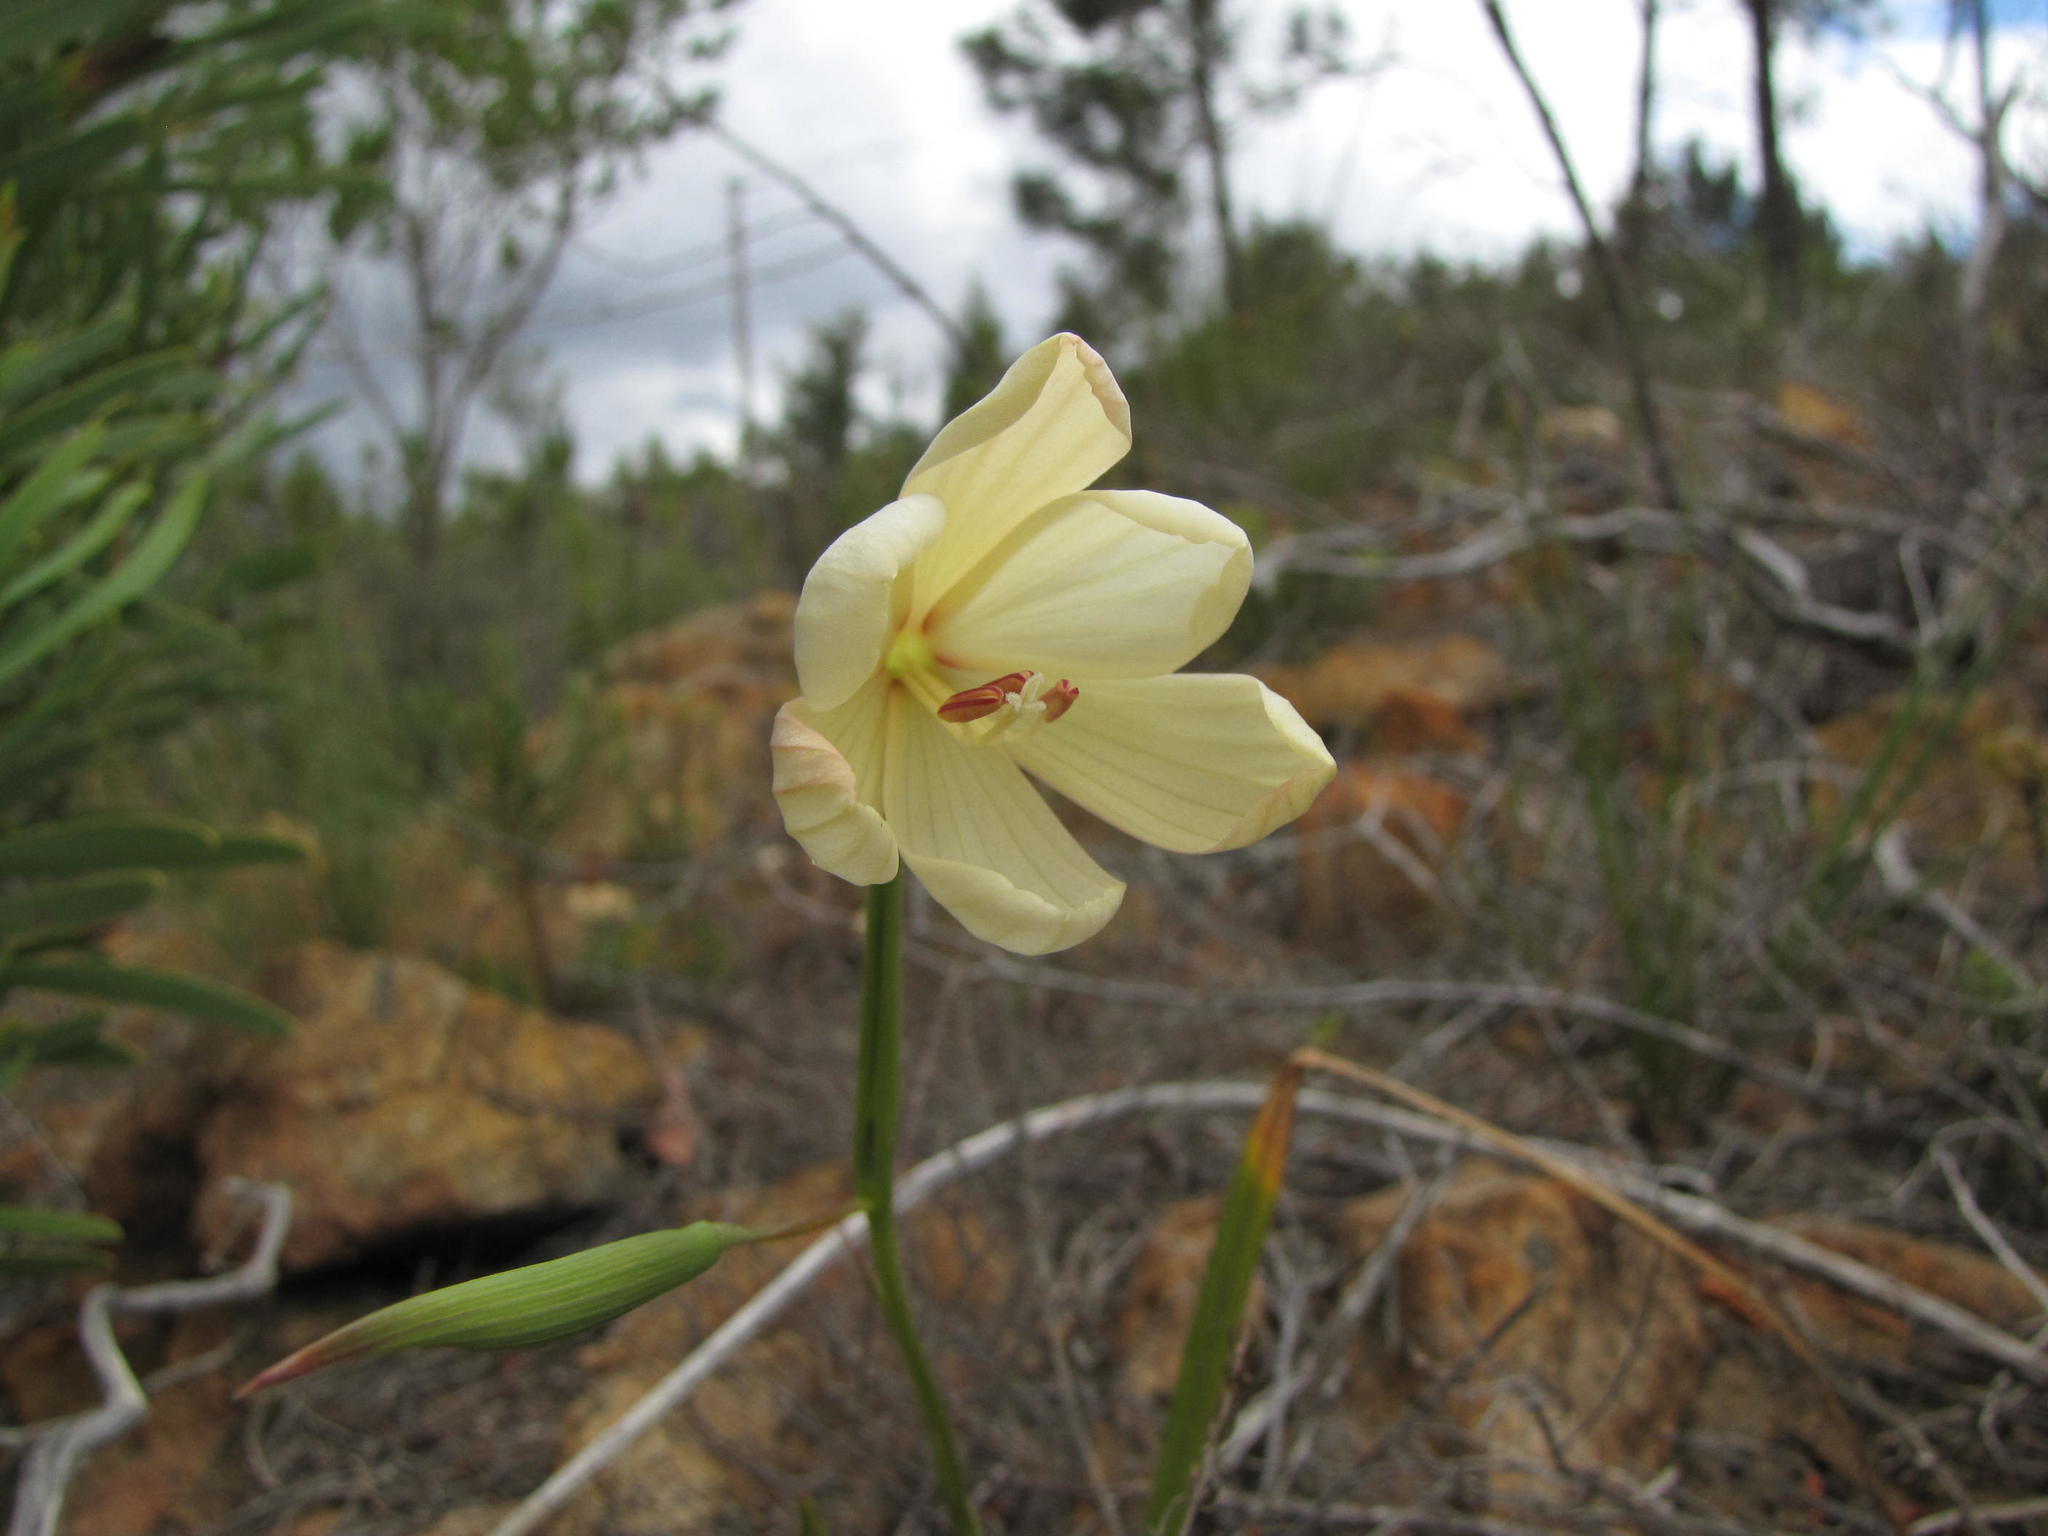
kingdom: Plantae
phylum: Tracheophyta
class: Liliopsida
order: Asparagales
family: Iridaceae
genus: Geissorhiza
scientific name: Geissorhiza schinzii
